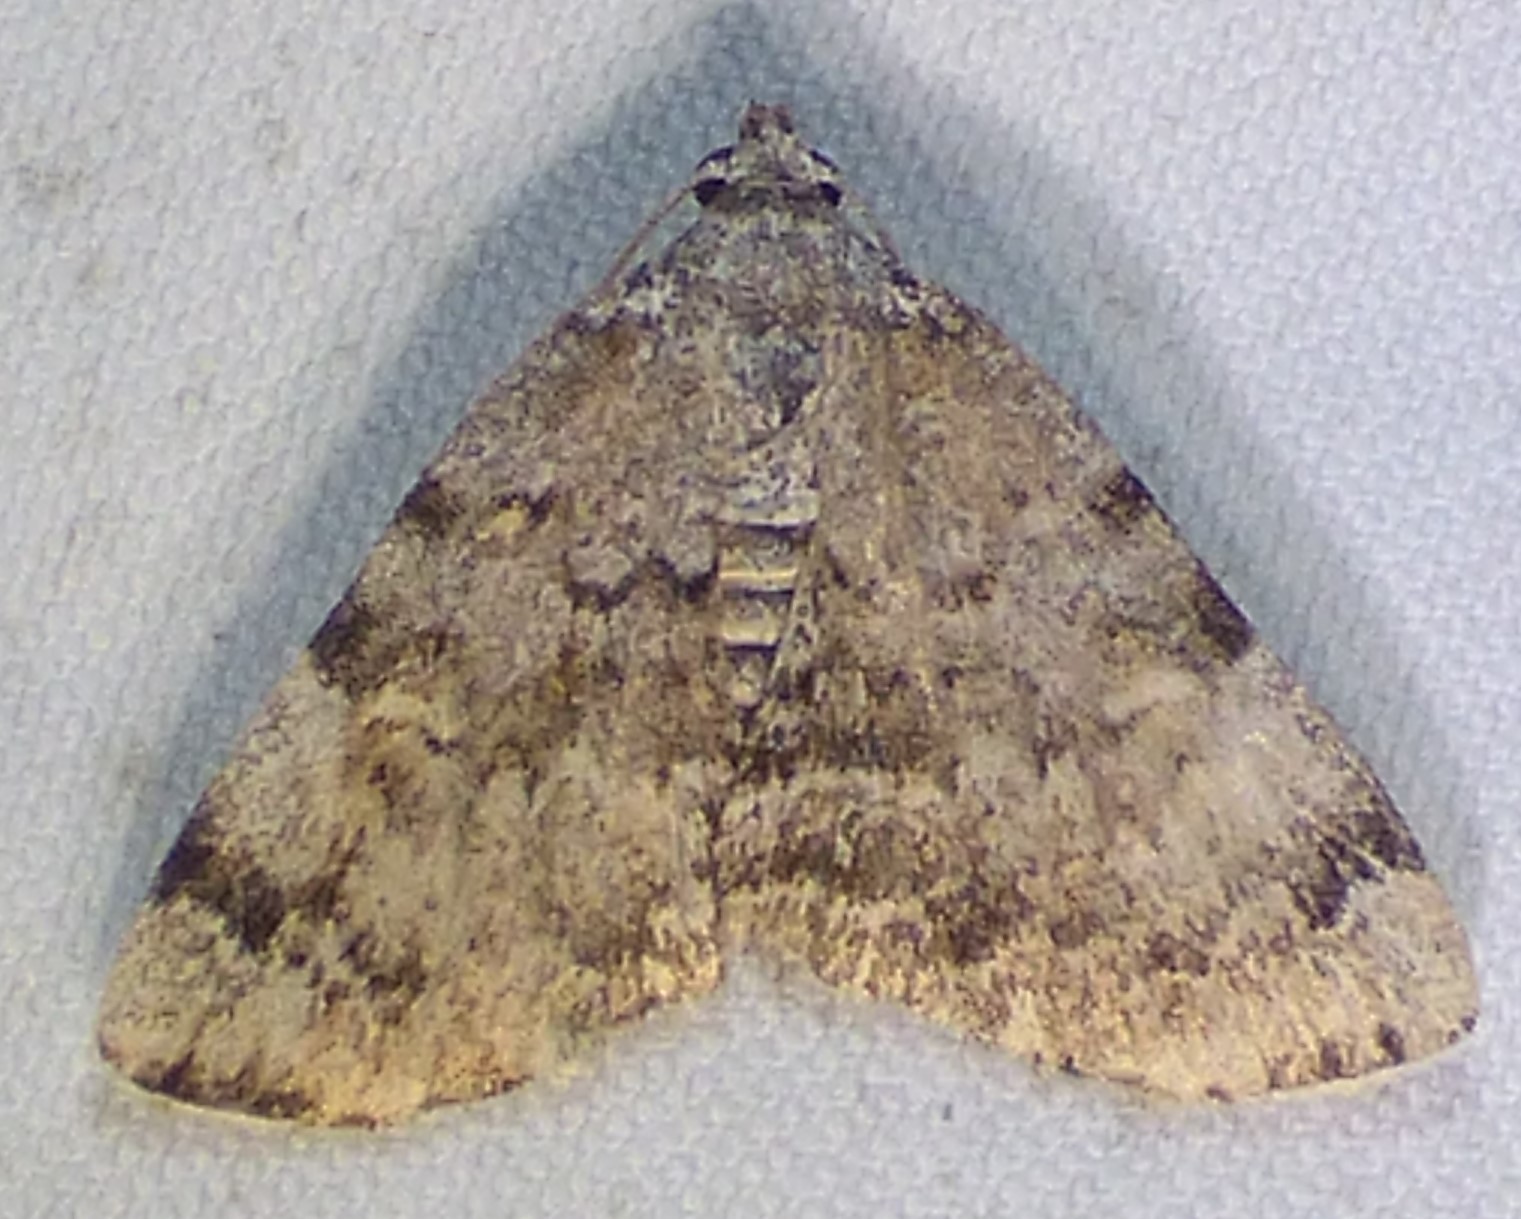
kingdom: Animalia
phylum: Arthropoda
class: Insecta
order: Lepidoptera
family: Erebidae
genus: Idia
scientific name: Idia americalis
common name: American idia moth
